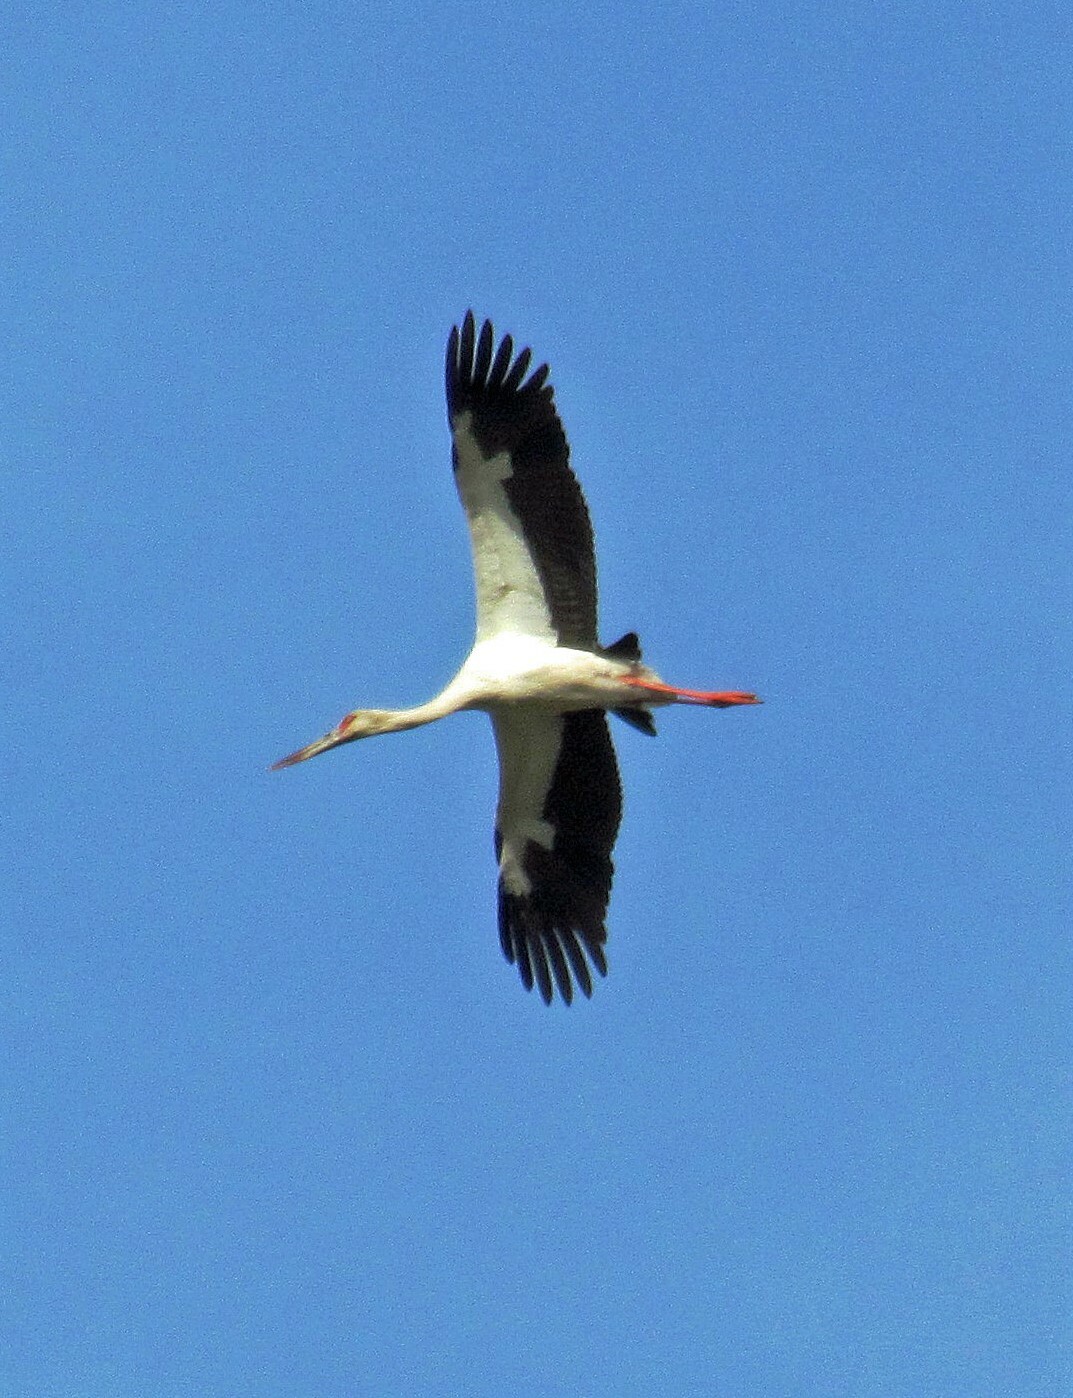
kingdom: Animalia
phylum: Chordata
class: Aves
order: Ciconiiformes
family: Ciconiidae
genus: Ciconia
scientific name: Ciconia maguari
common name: Maguari stork
